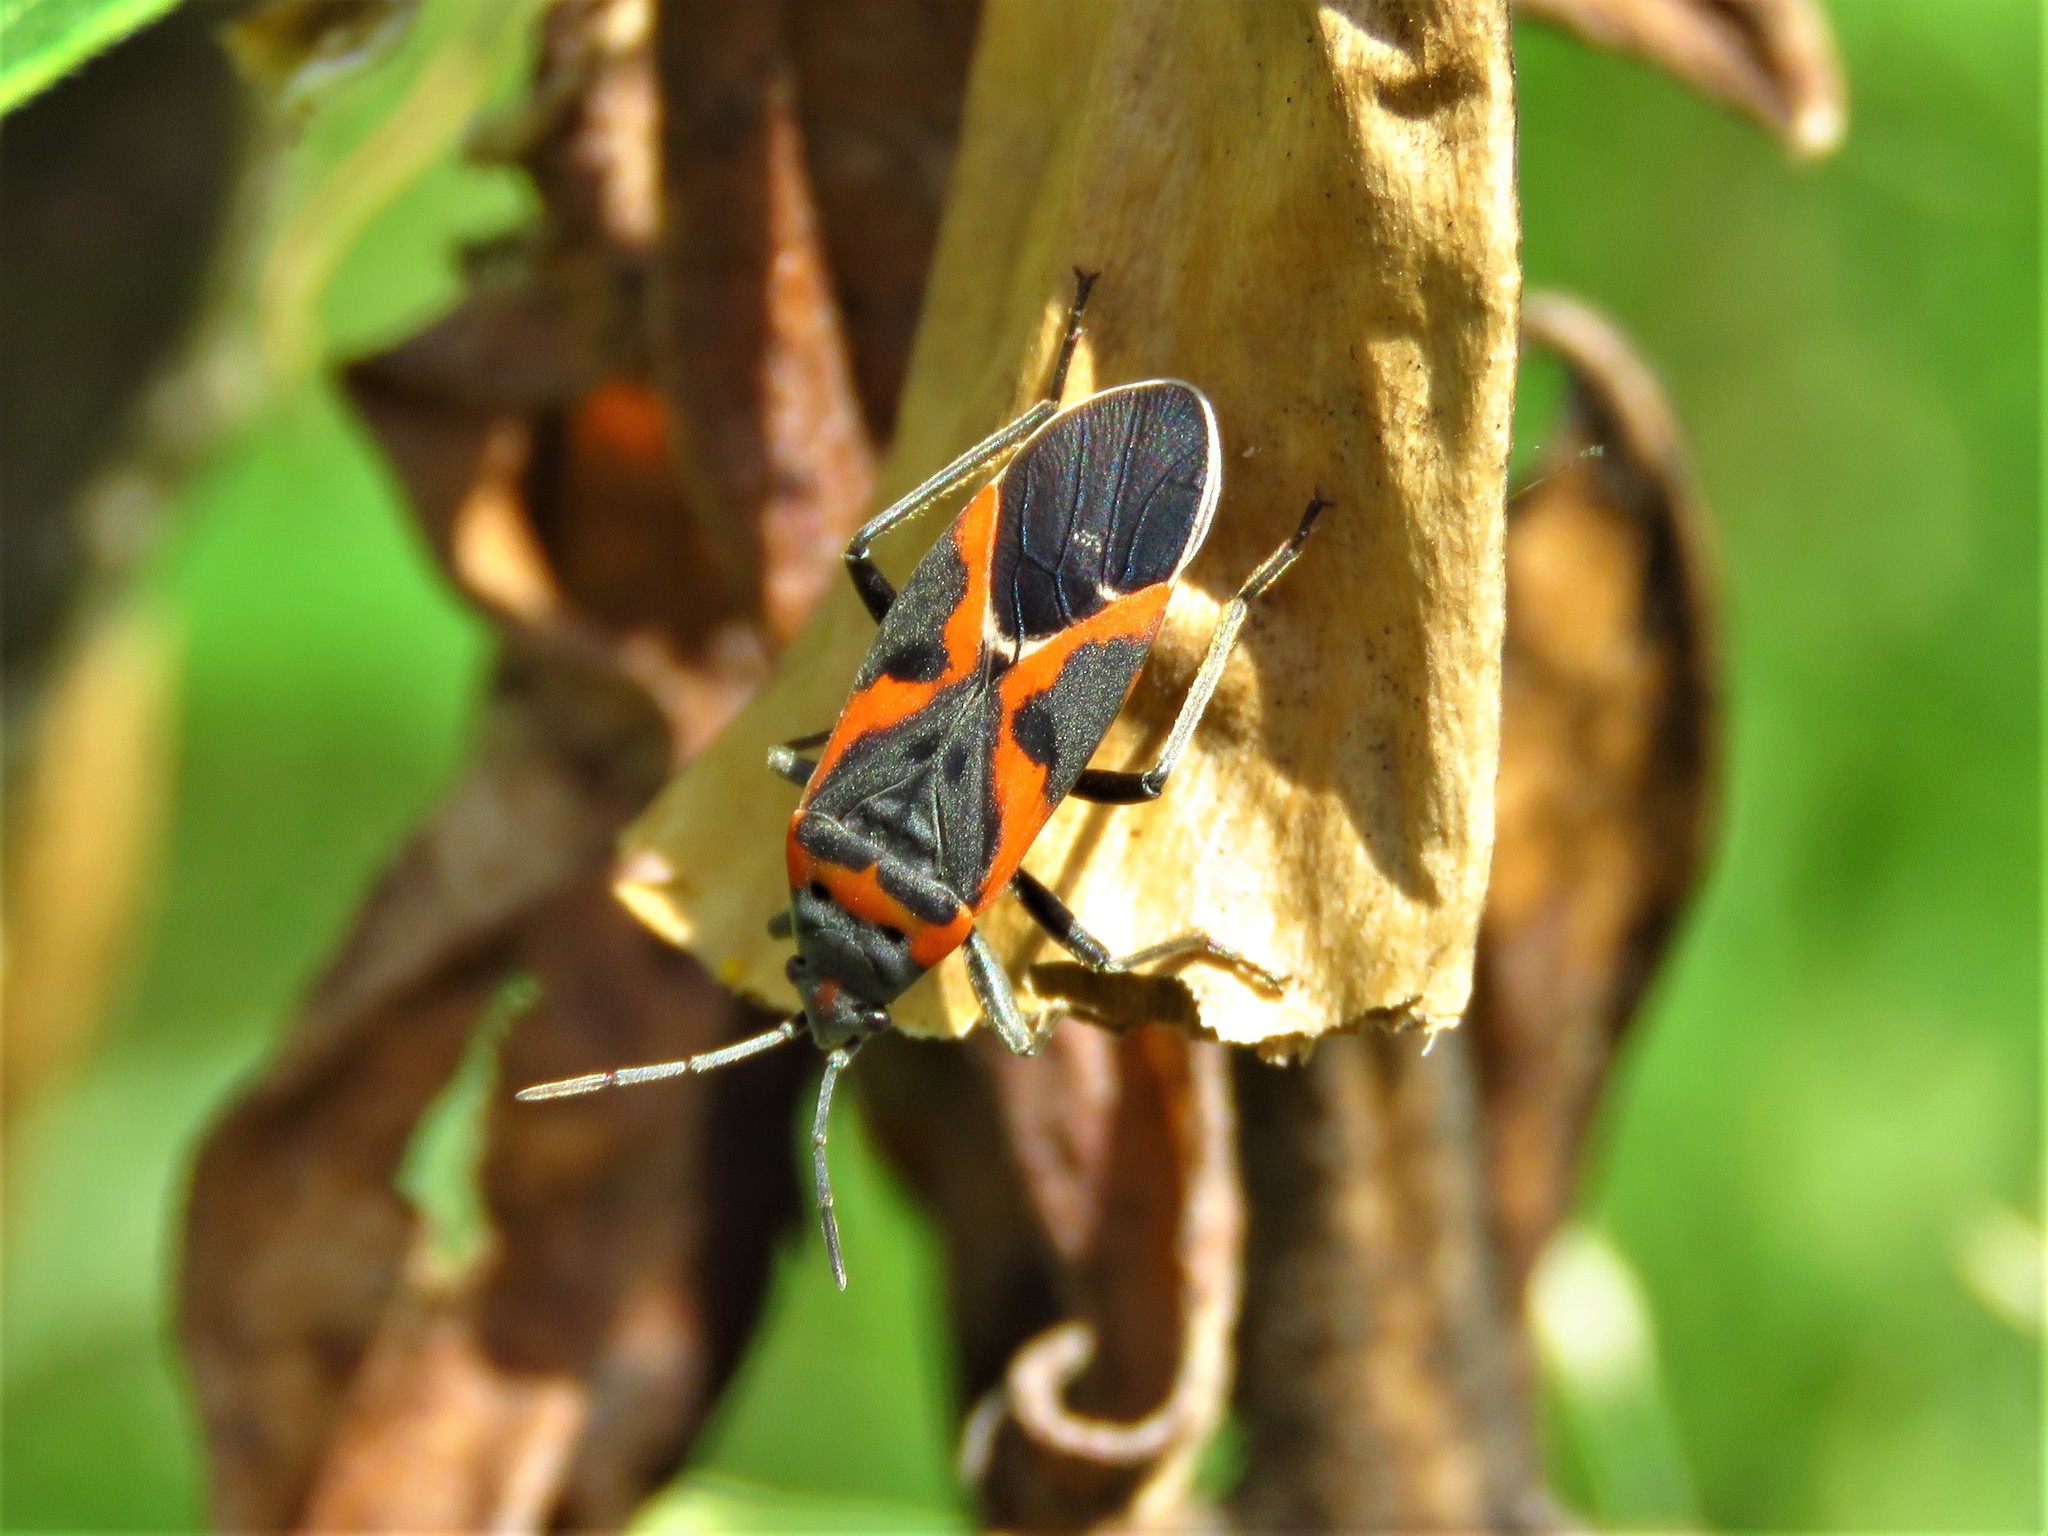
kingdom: Animalia
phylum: Arthropoda
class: Insecta
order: Hemiptera
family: Lygaeidae
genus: Lygaeus
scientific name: Lygaeus kalmii
